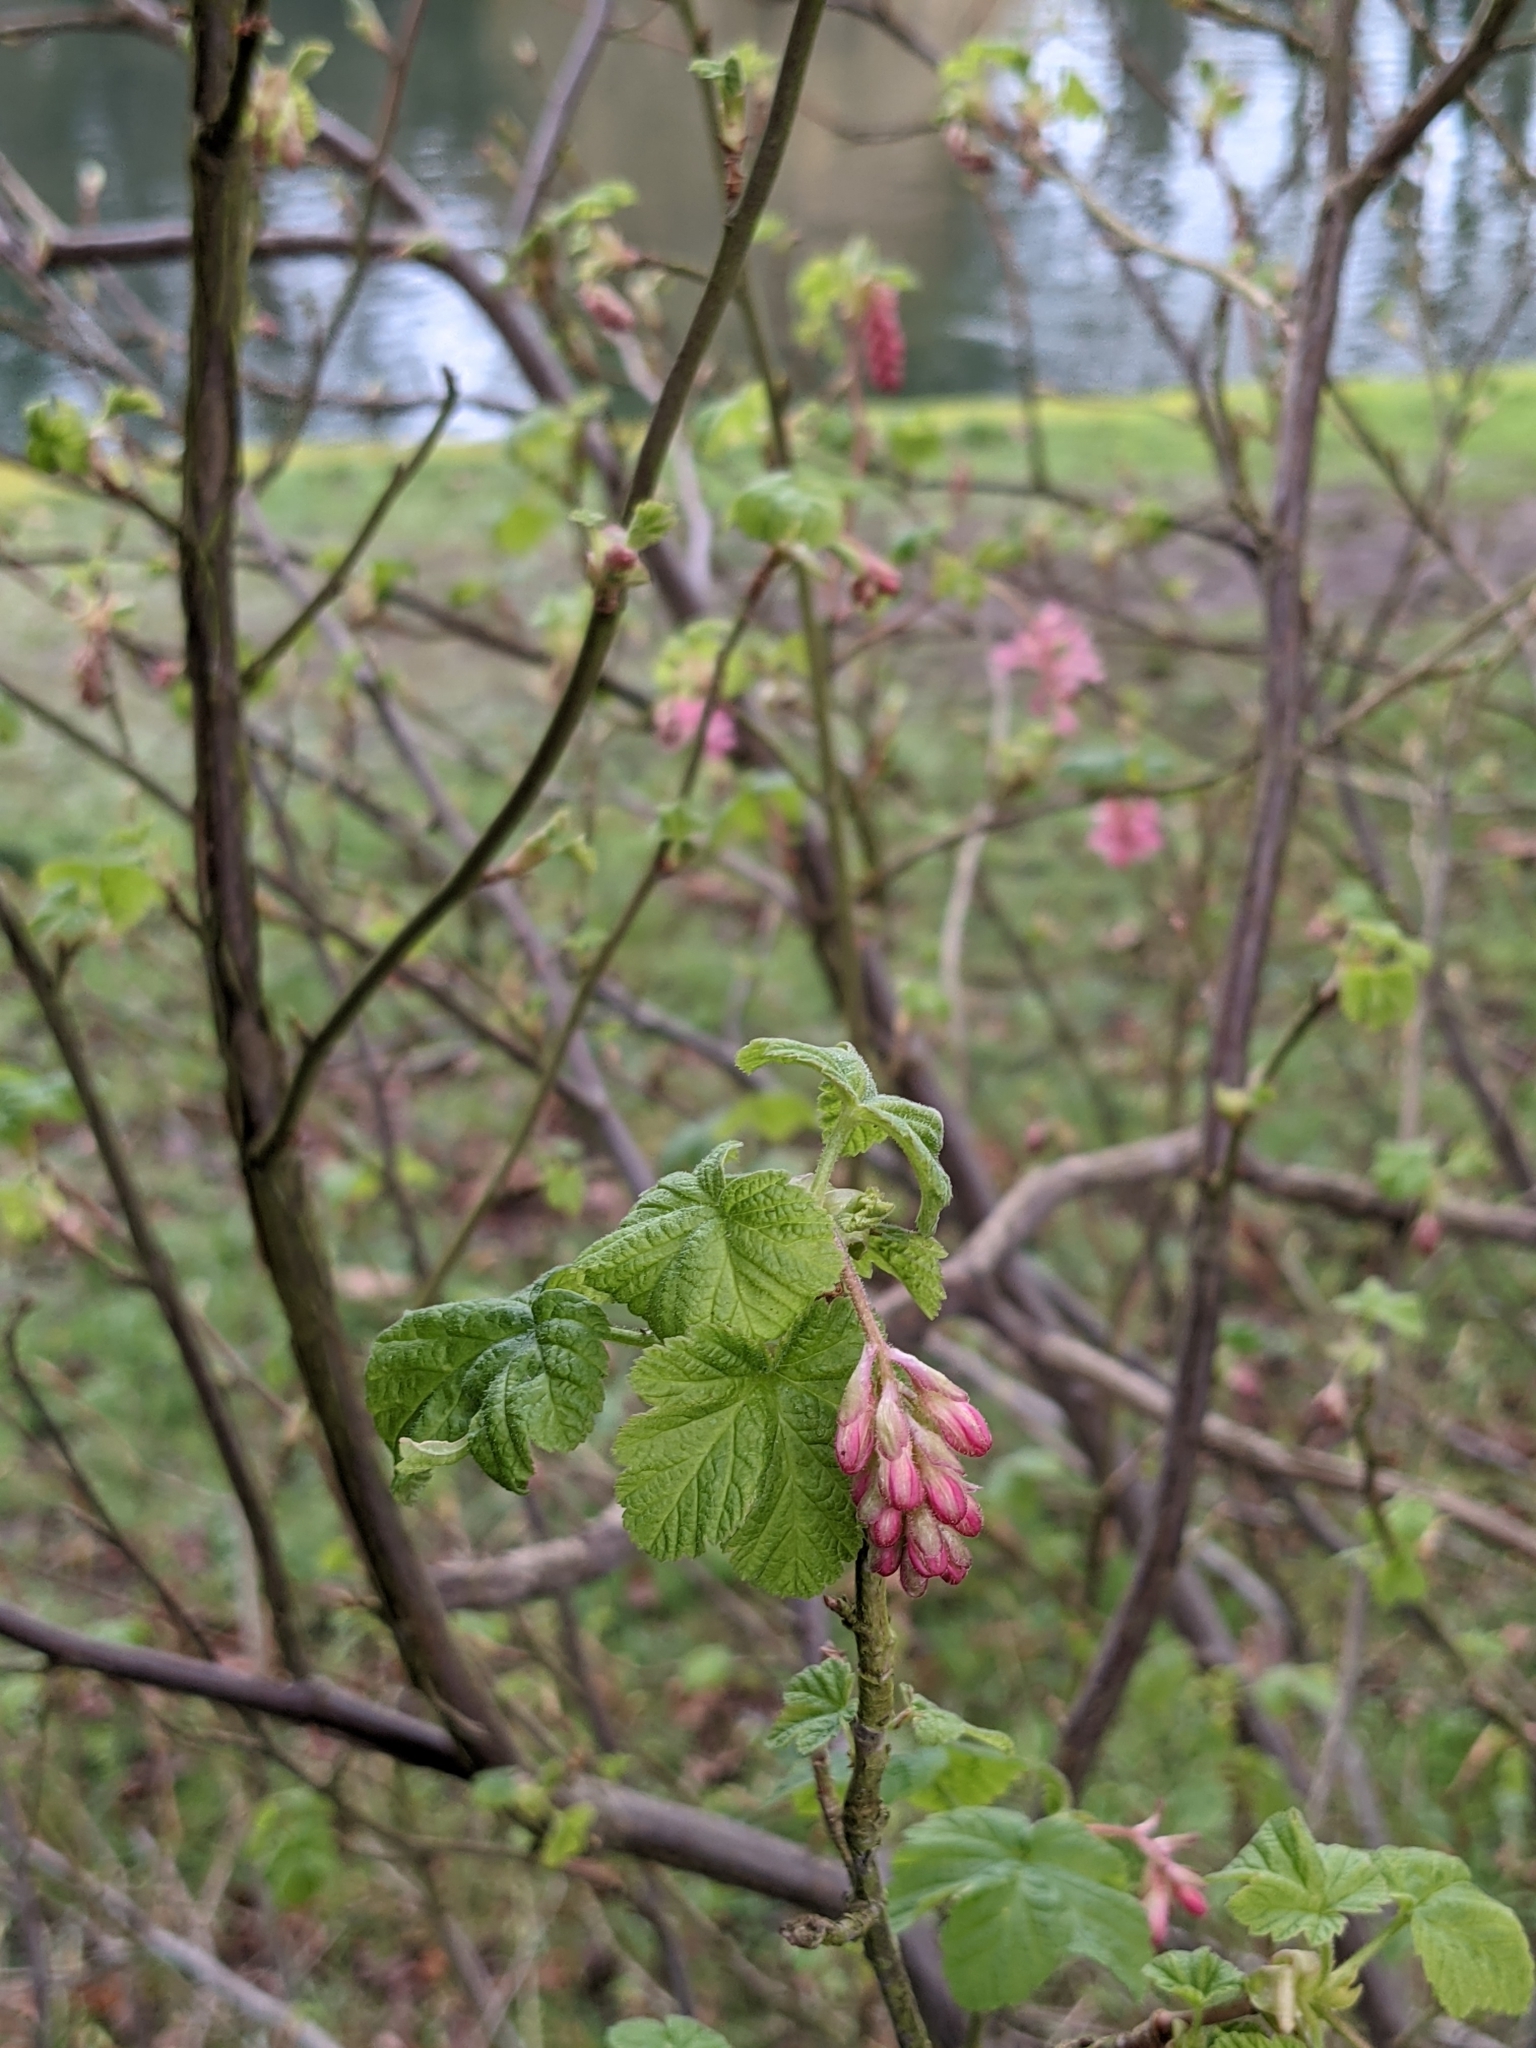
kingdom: Plantae
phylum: Tracheophyta
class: Magnoliopsida
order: Saxifragales
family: Grossulariaceae
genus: Ribes
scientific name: Ribes sanguineum
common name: Flowering currant
